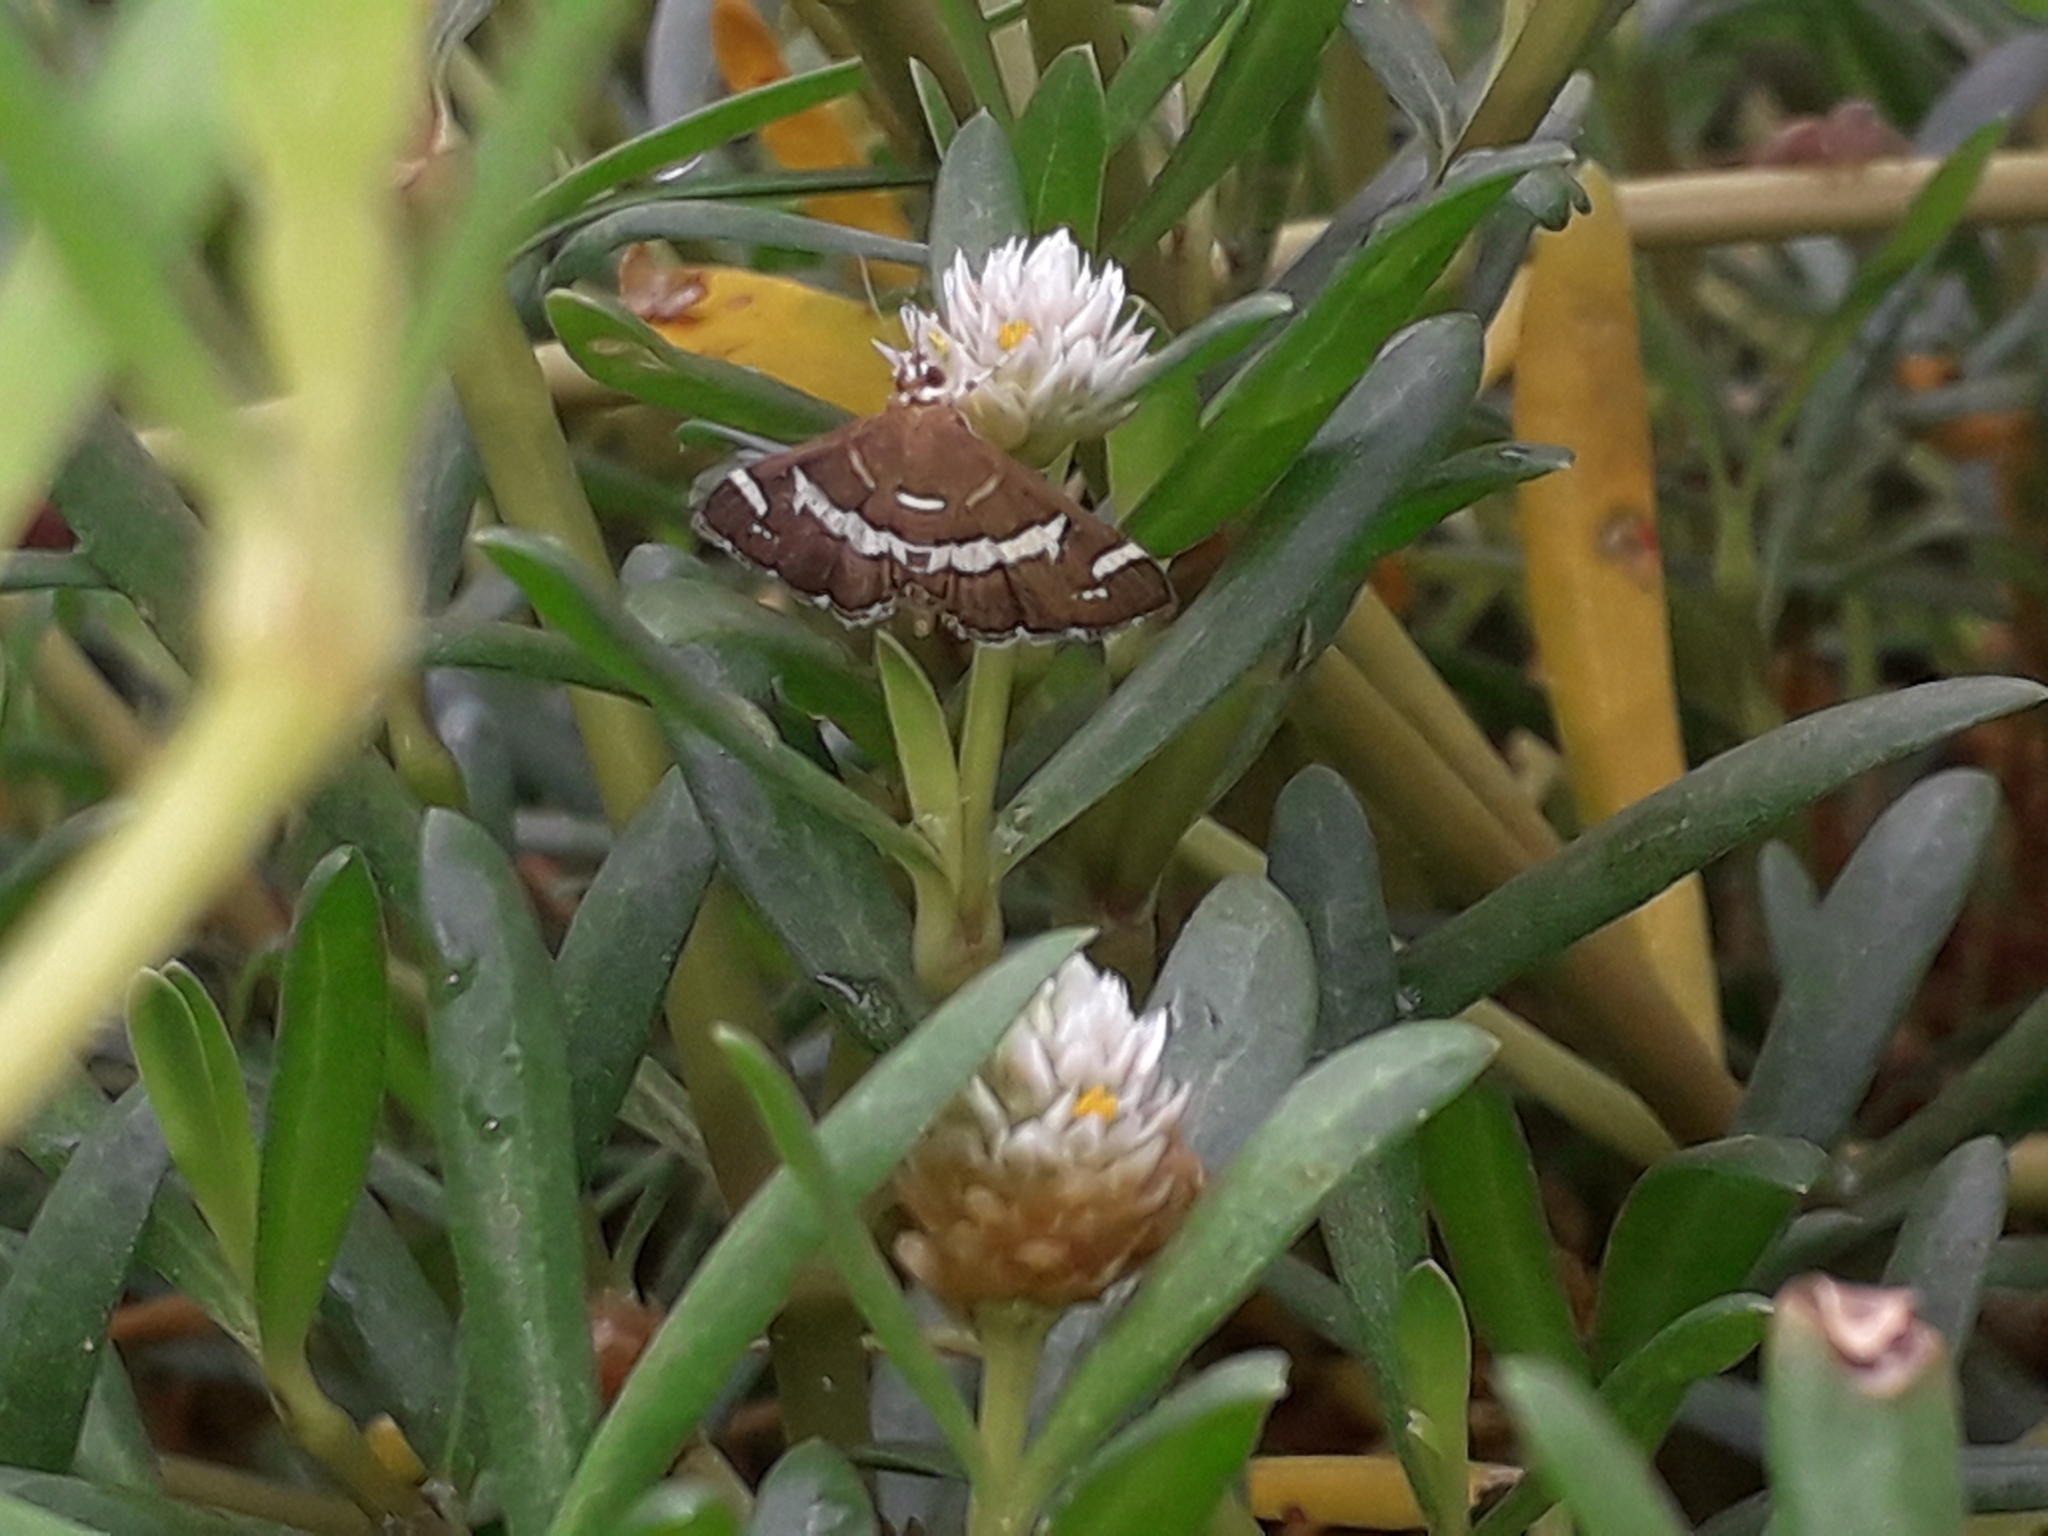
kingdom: Plantae
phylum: Tracheophyta
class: Magnoliopsida
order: Caryophyllales
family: Amaranthaceae
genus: Gomphrena
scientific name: Gomphrena vermicularis
